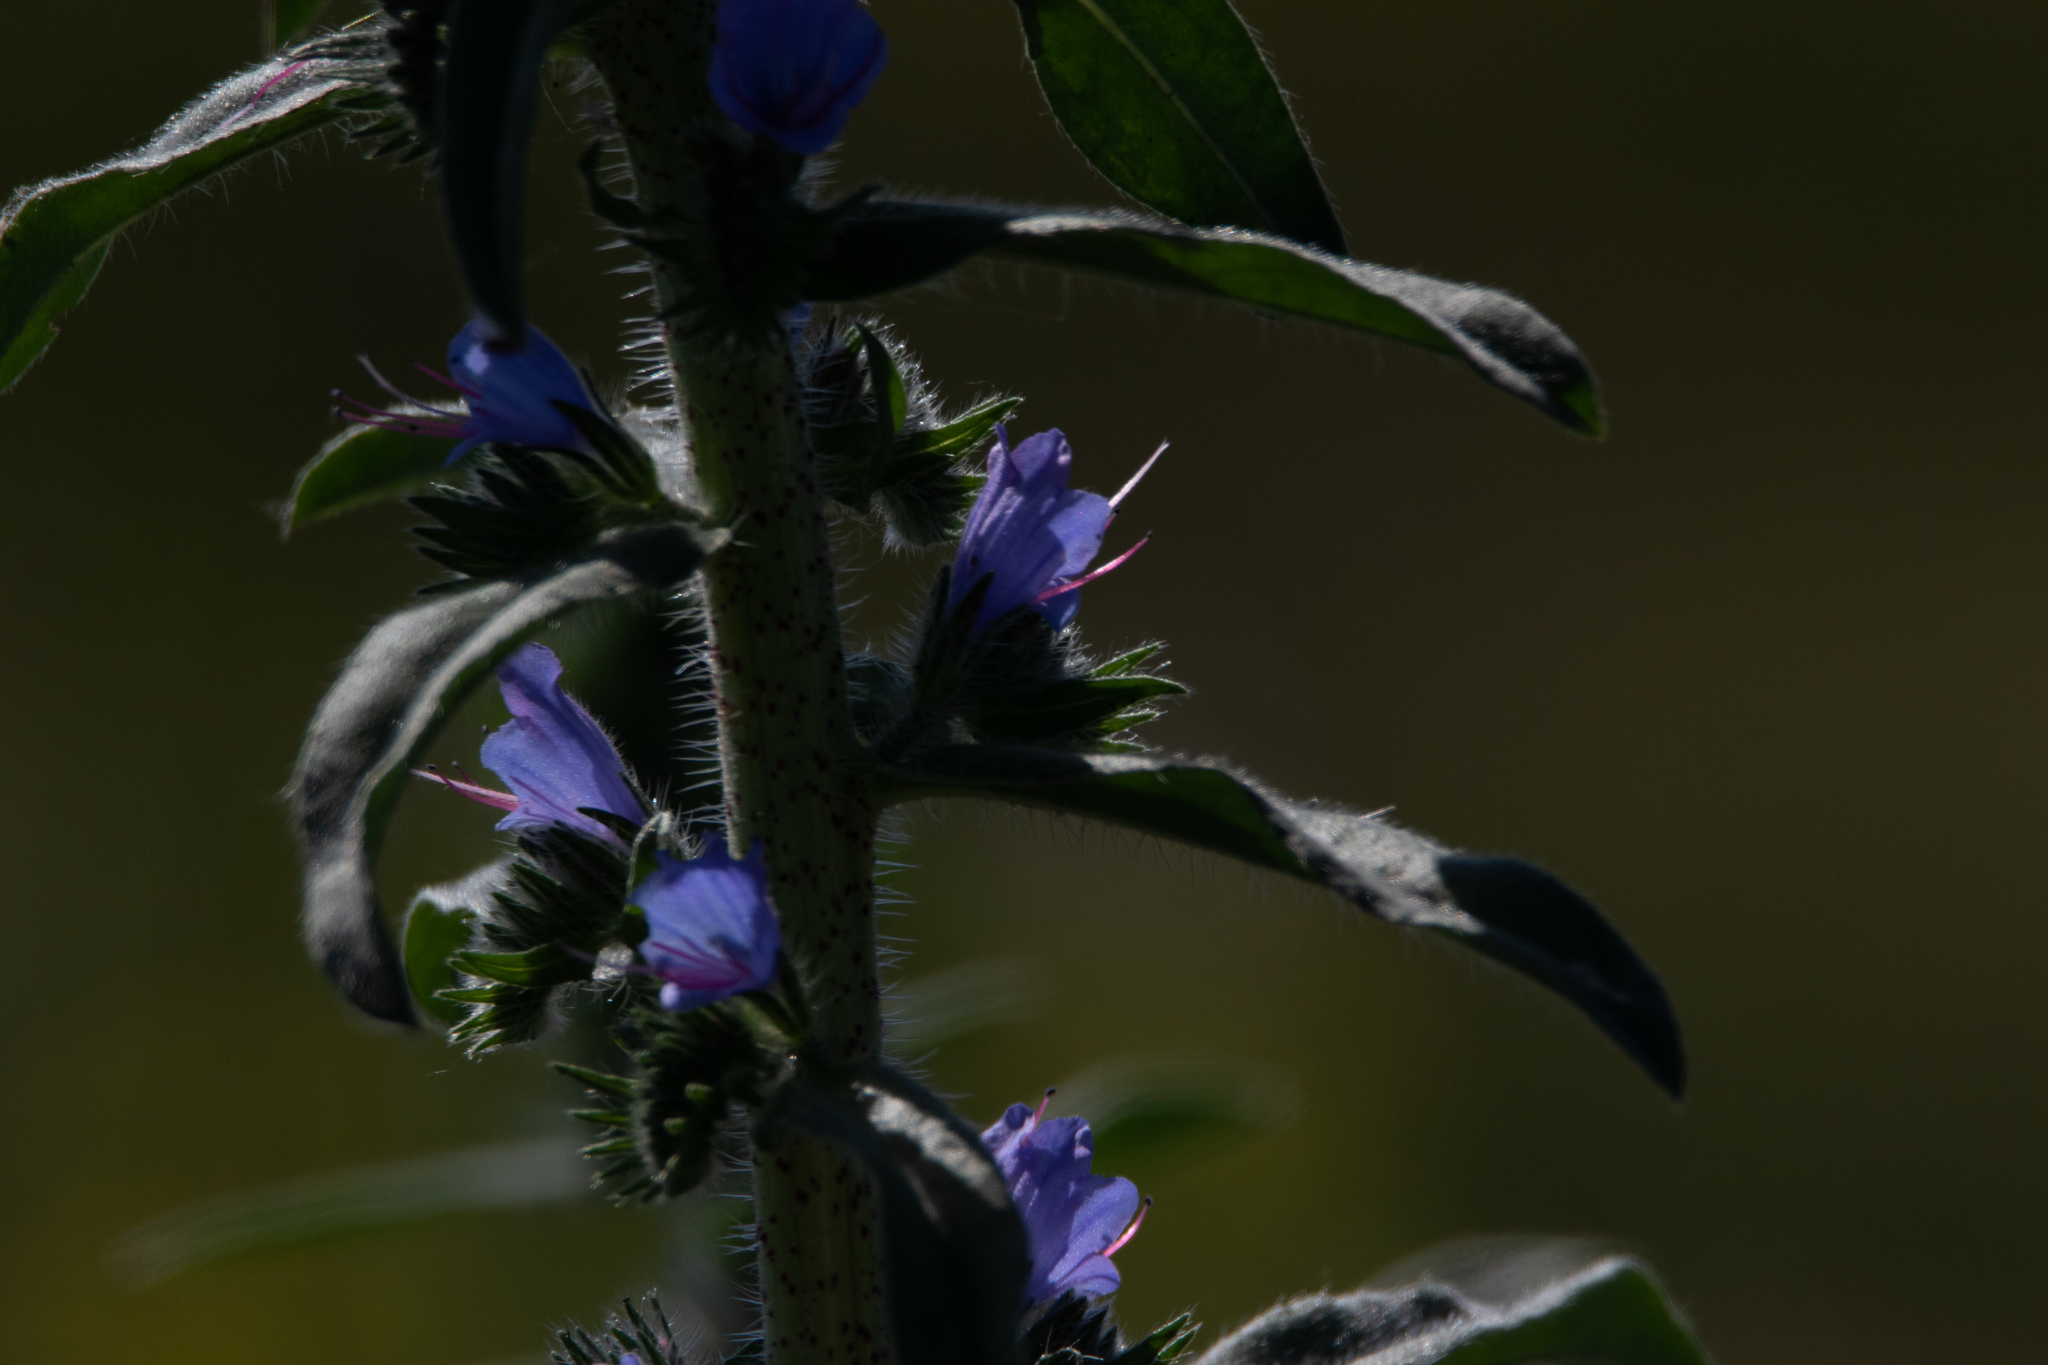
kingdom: Plantae
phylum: Tracheophyta
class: Magnoliopsida
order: Boraginales
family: Boraginaceae
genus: Echium
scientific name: Echium vulgare
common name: Common viper's bugloss
